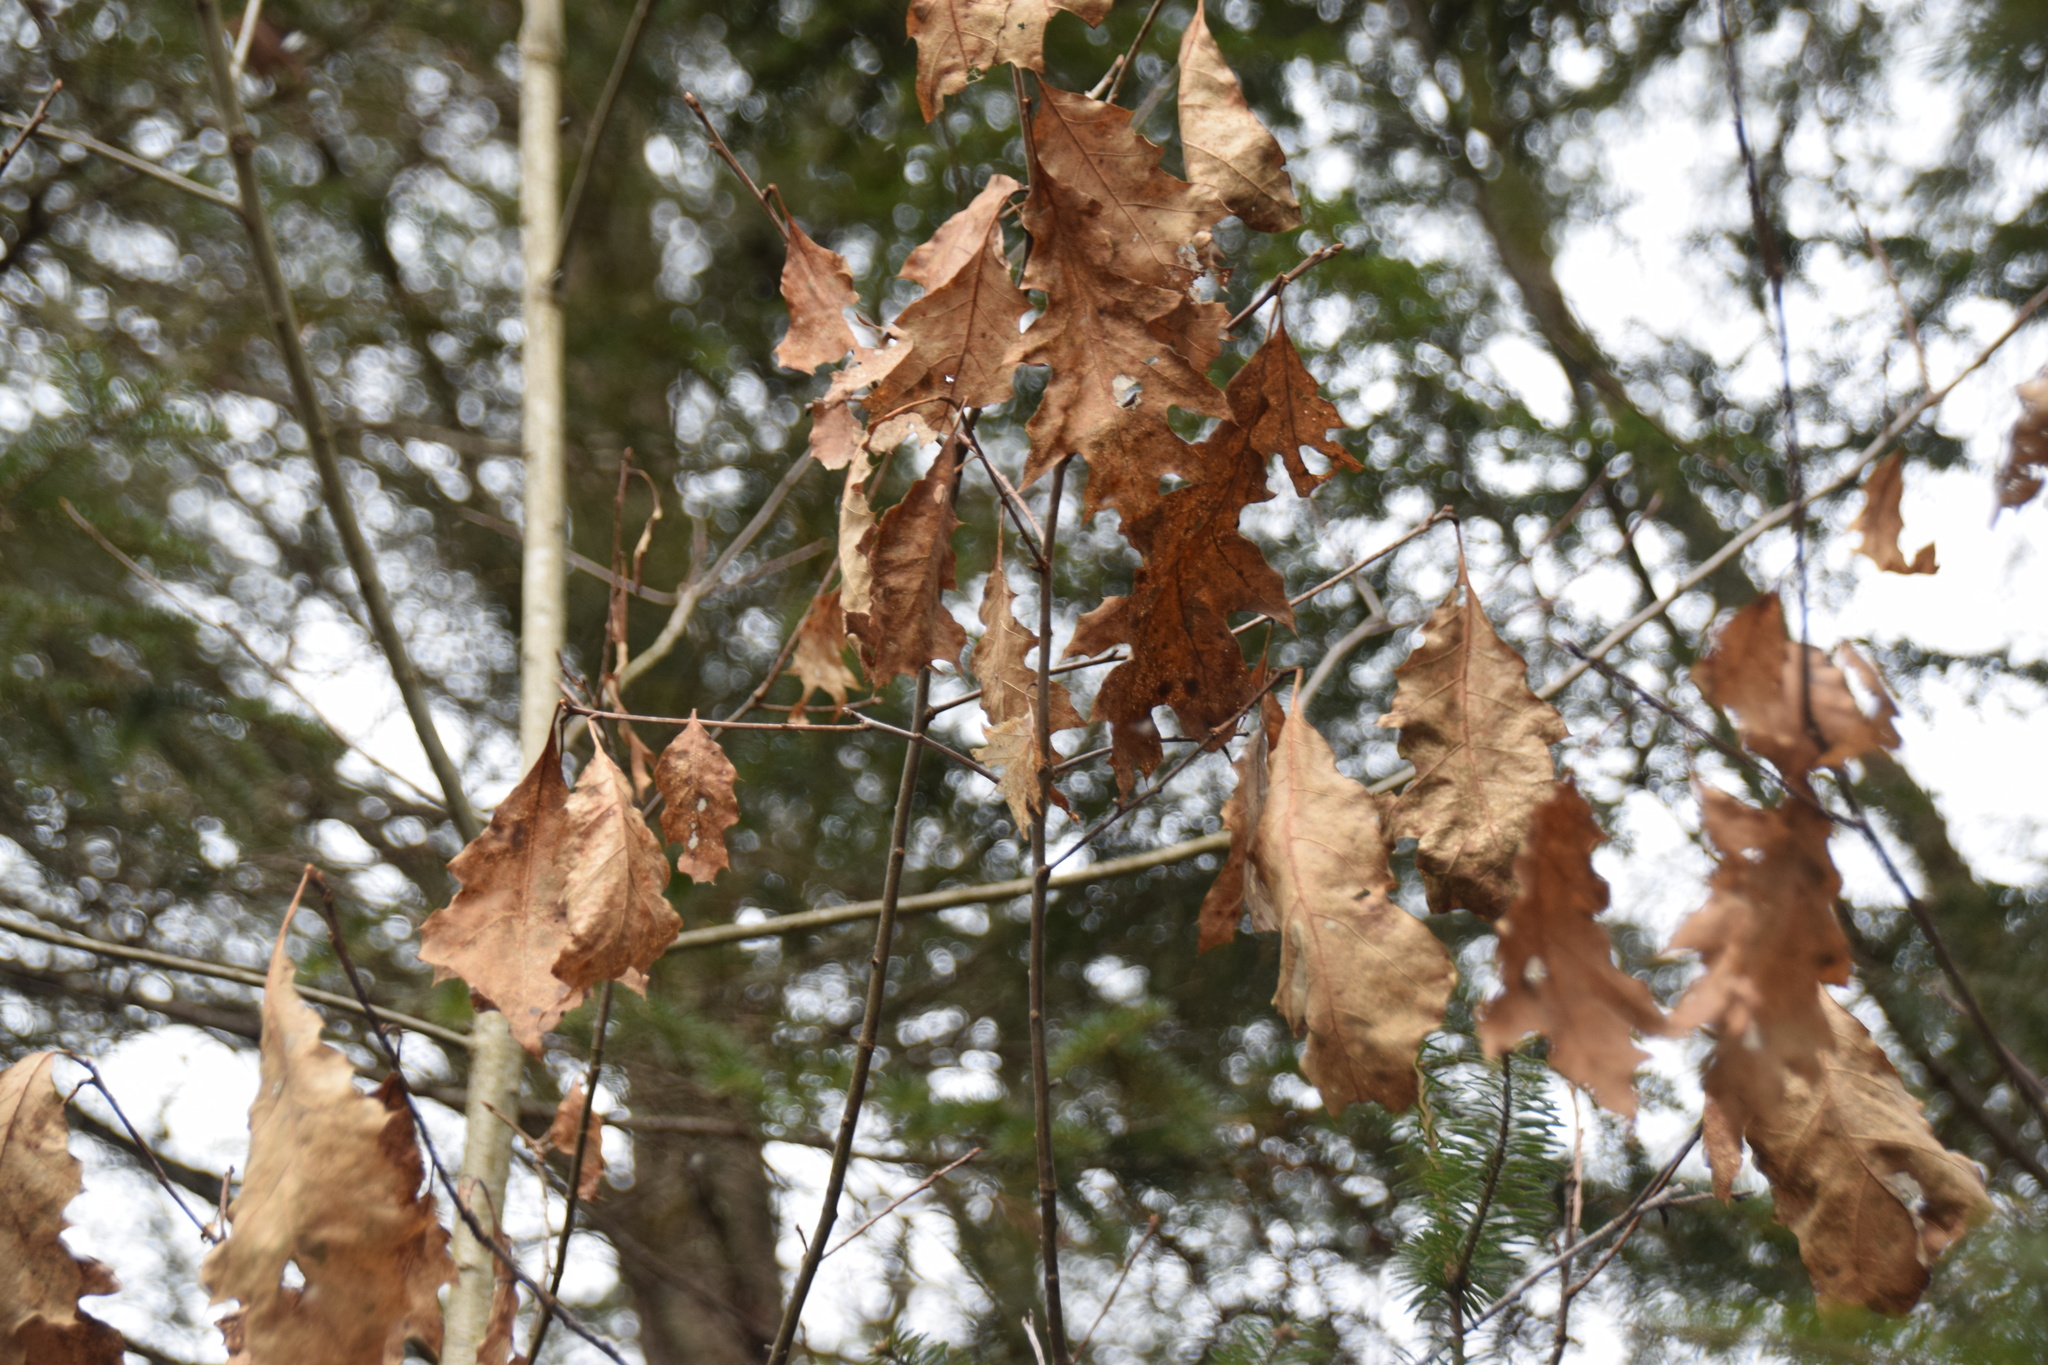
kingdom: Plantae
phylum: Tracheophyta
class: Magnoliopsida
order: Fagales
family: Fagaceae
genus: Quercus
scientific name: Quercus rubra
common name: Red oak
